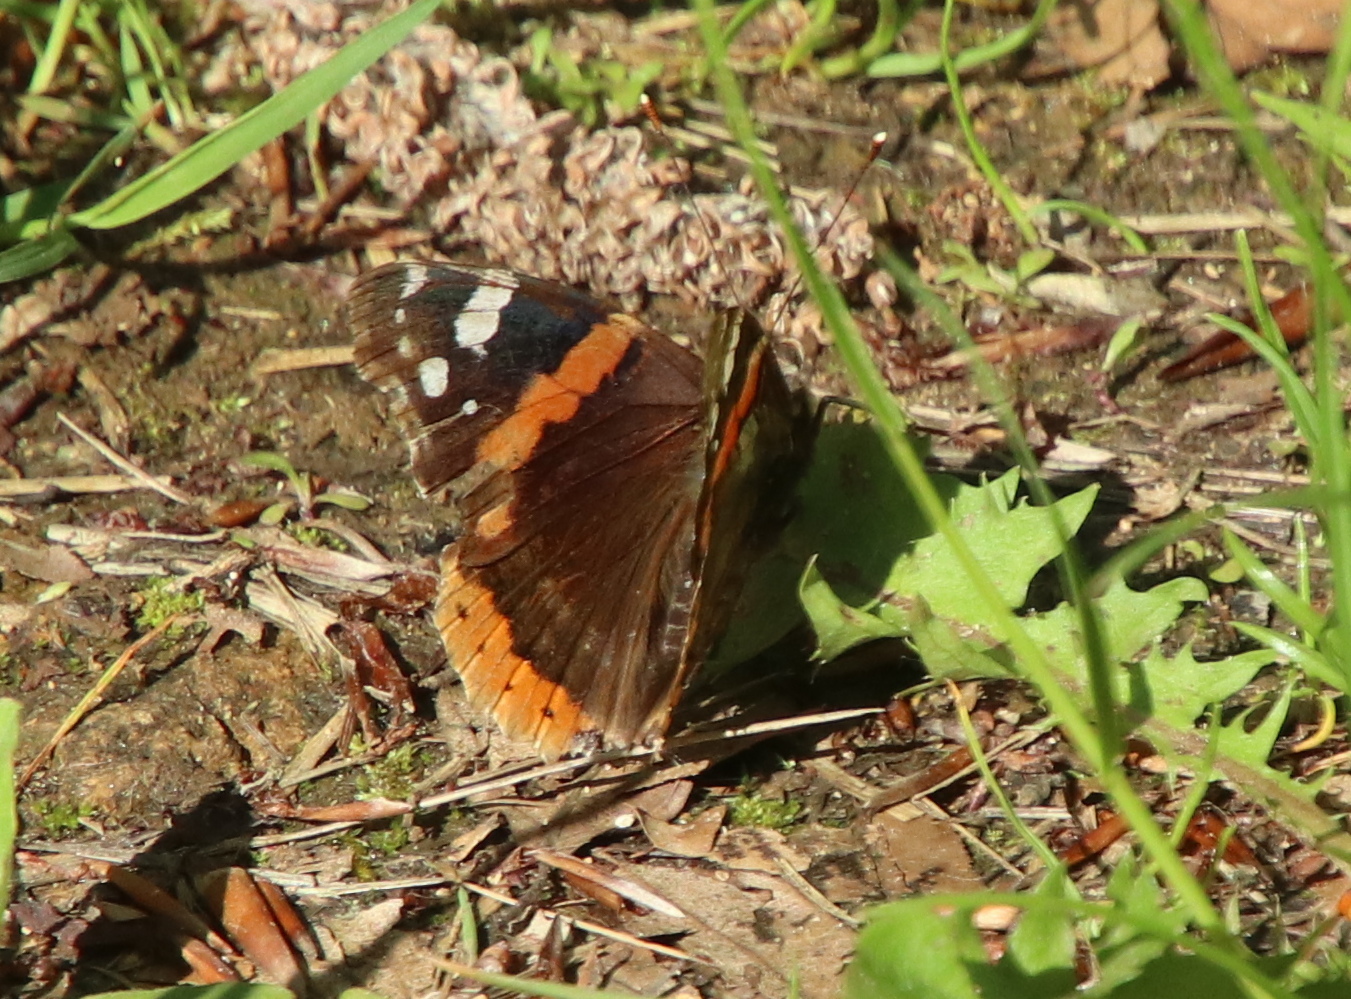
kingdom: Animalia
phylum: Arthropoda
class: Insecta
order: Lepidoptera
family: Nymphalidae
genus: Vanessa
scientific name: Vanessa atalanta
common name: Red admiral
